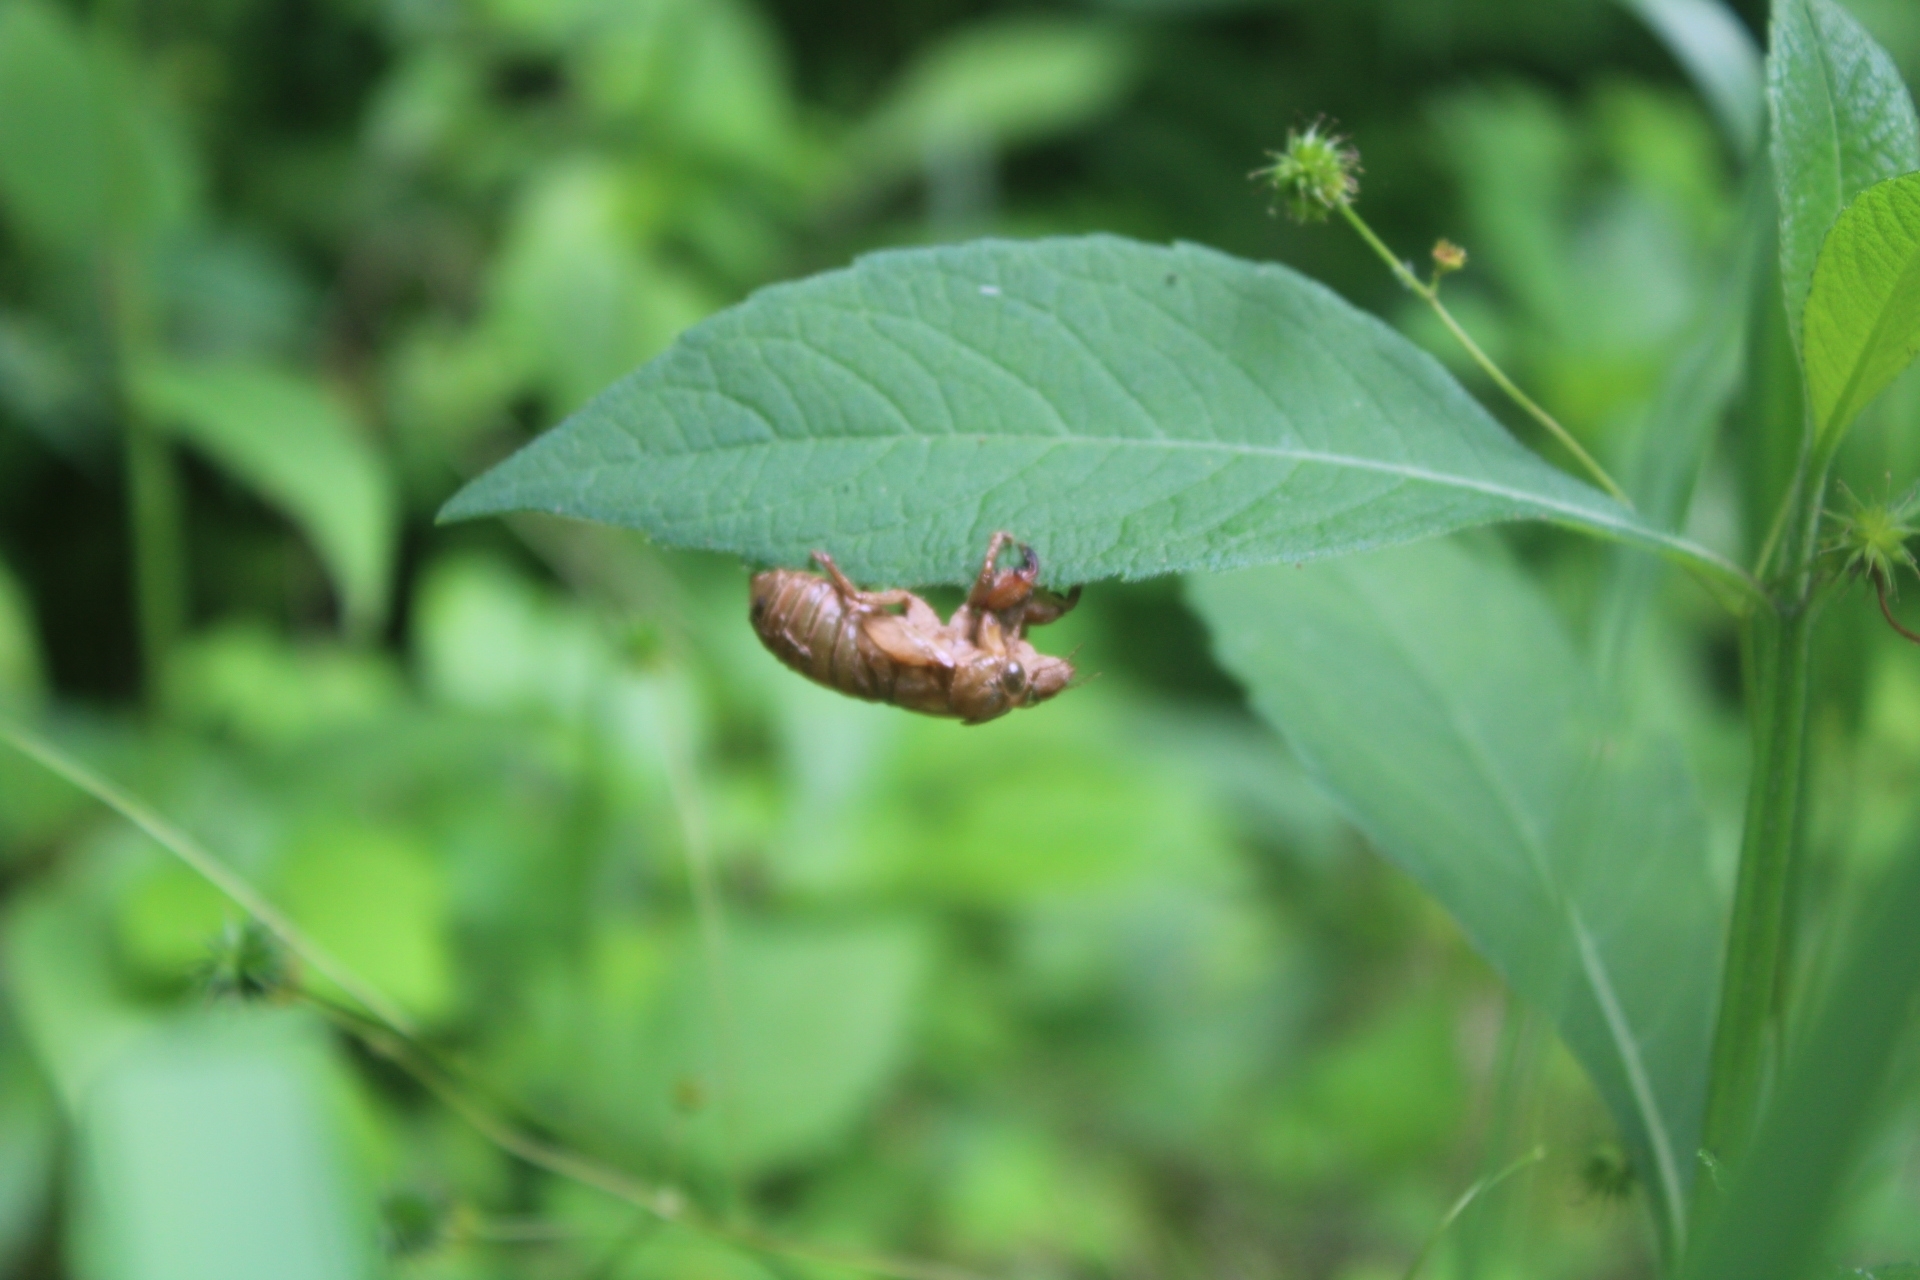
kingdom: Animalia
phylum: Arthropoda
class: Insecta
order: Hemiptera
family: Cicadidae
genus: Magicicada
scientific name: Magicicada
